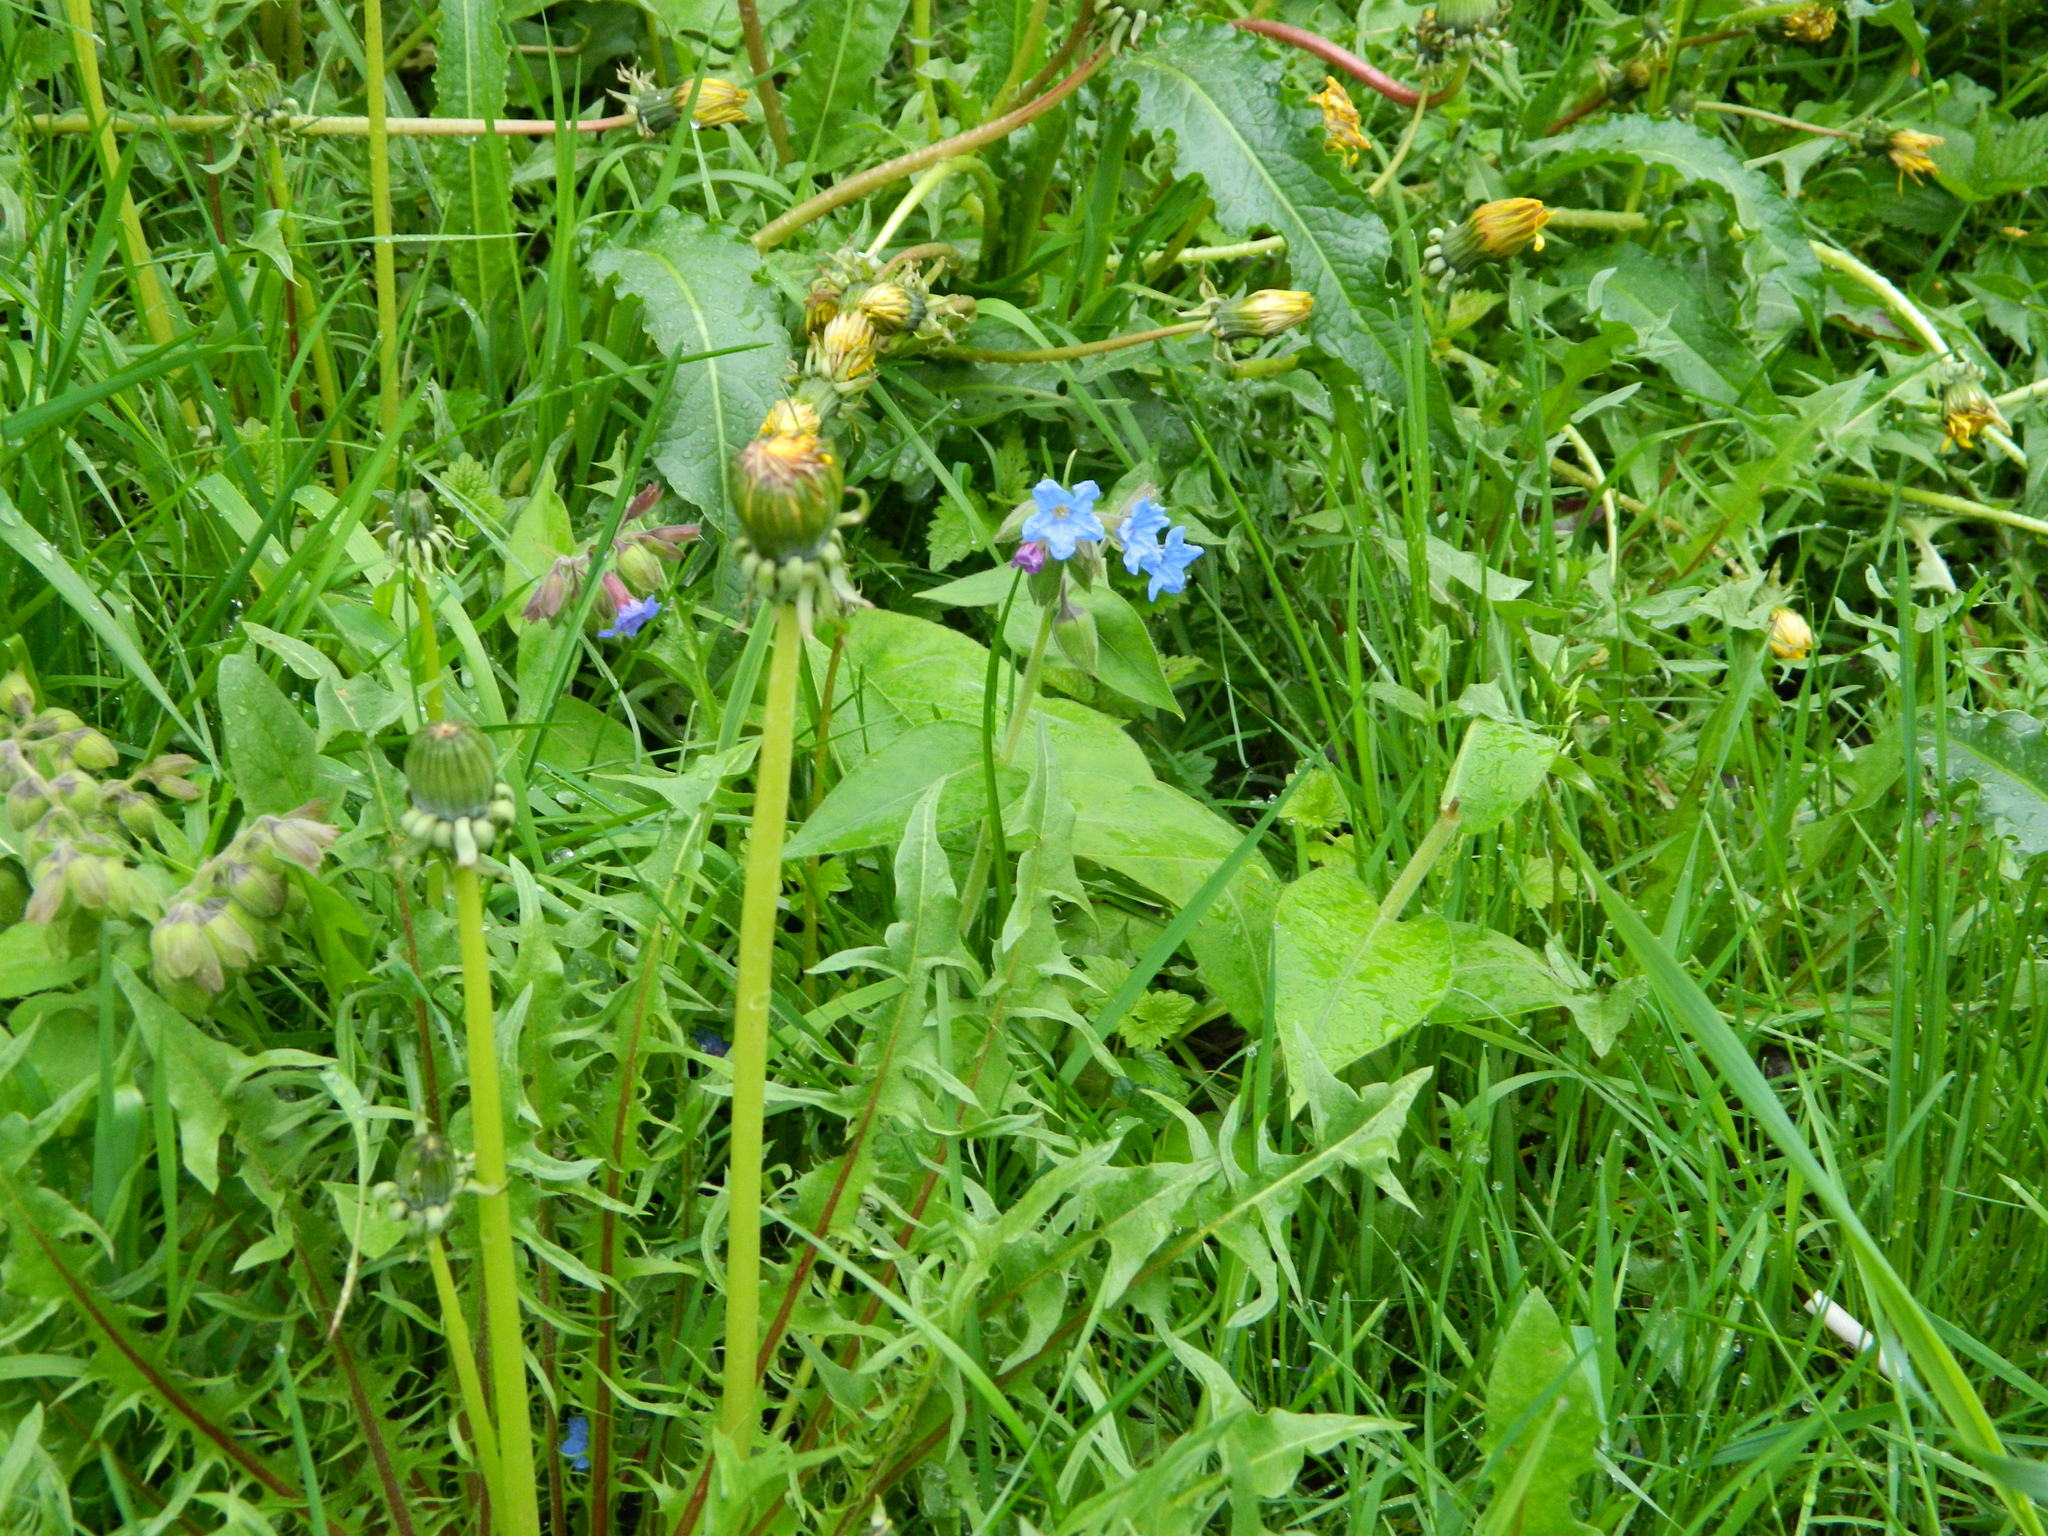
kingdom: Plantae
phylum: Tracheophyta
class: Magnoliopsida
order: Boraginales
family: Boraginaceae
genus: Pulmonaria
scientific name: Pulmonaria mollis
